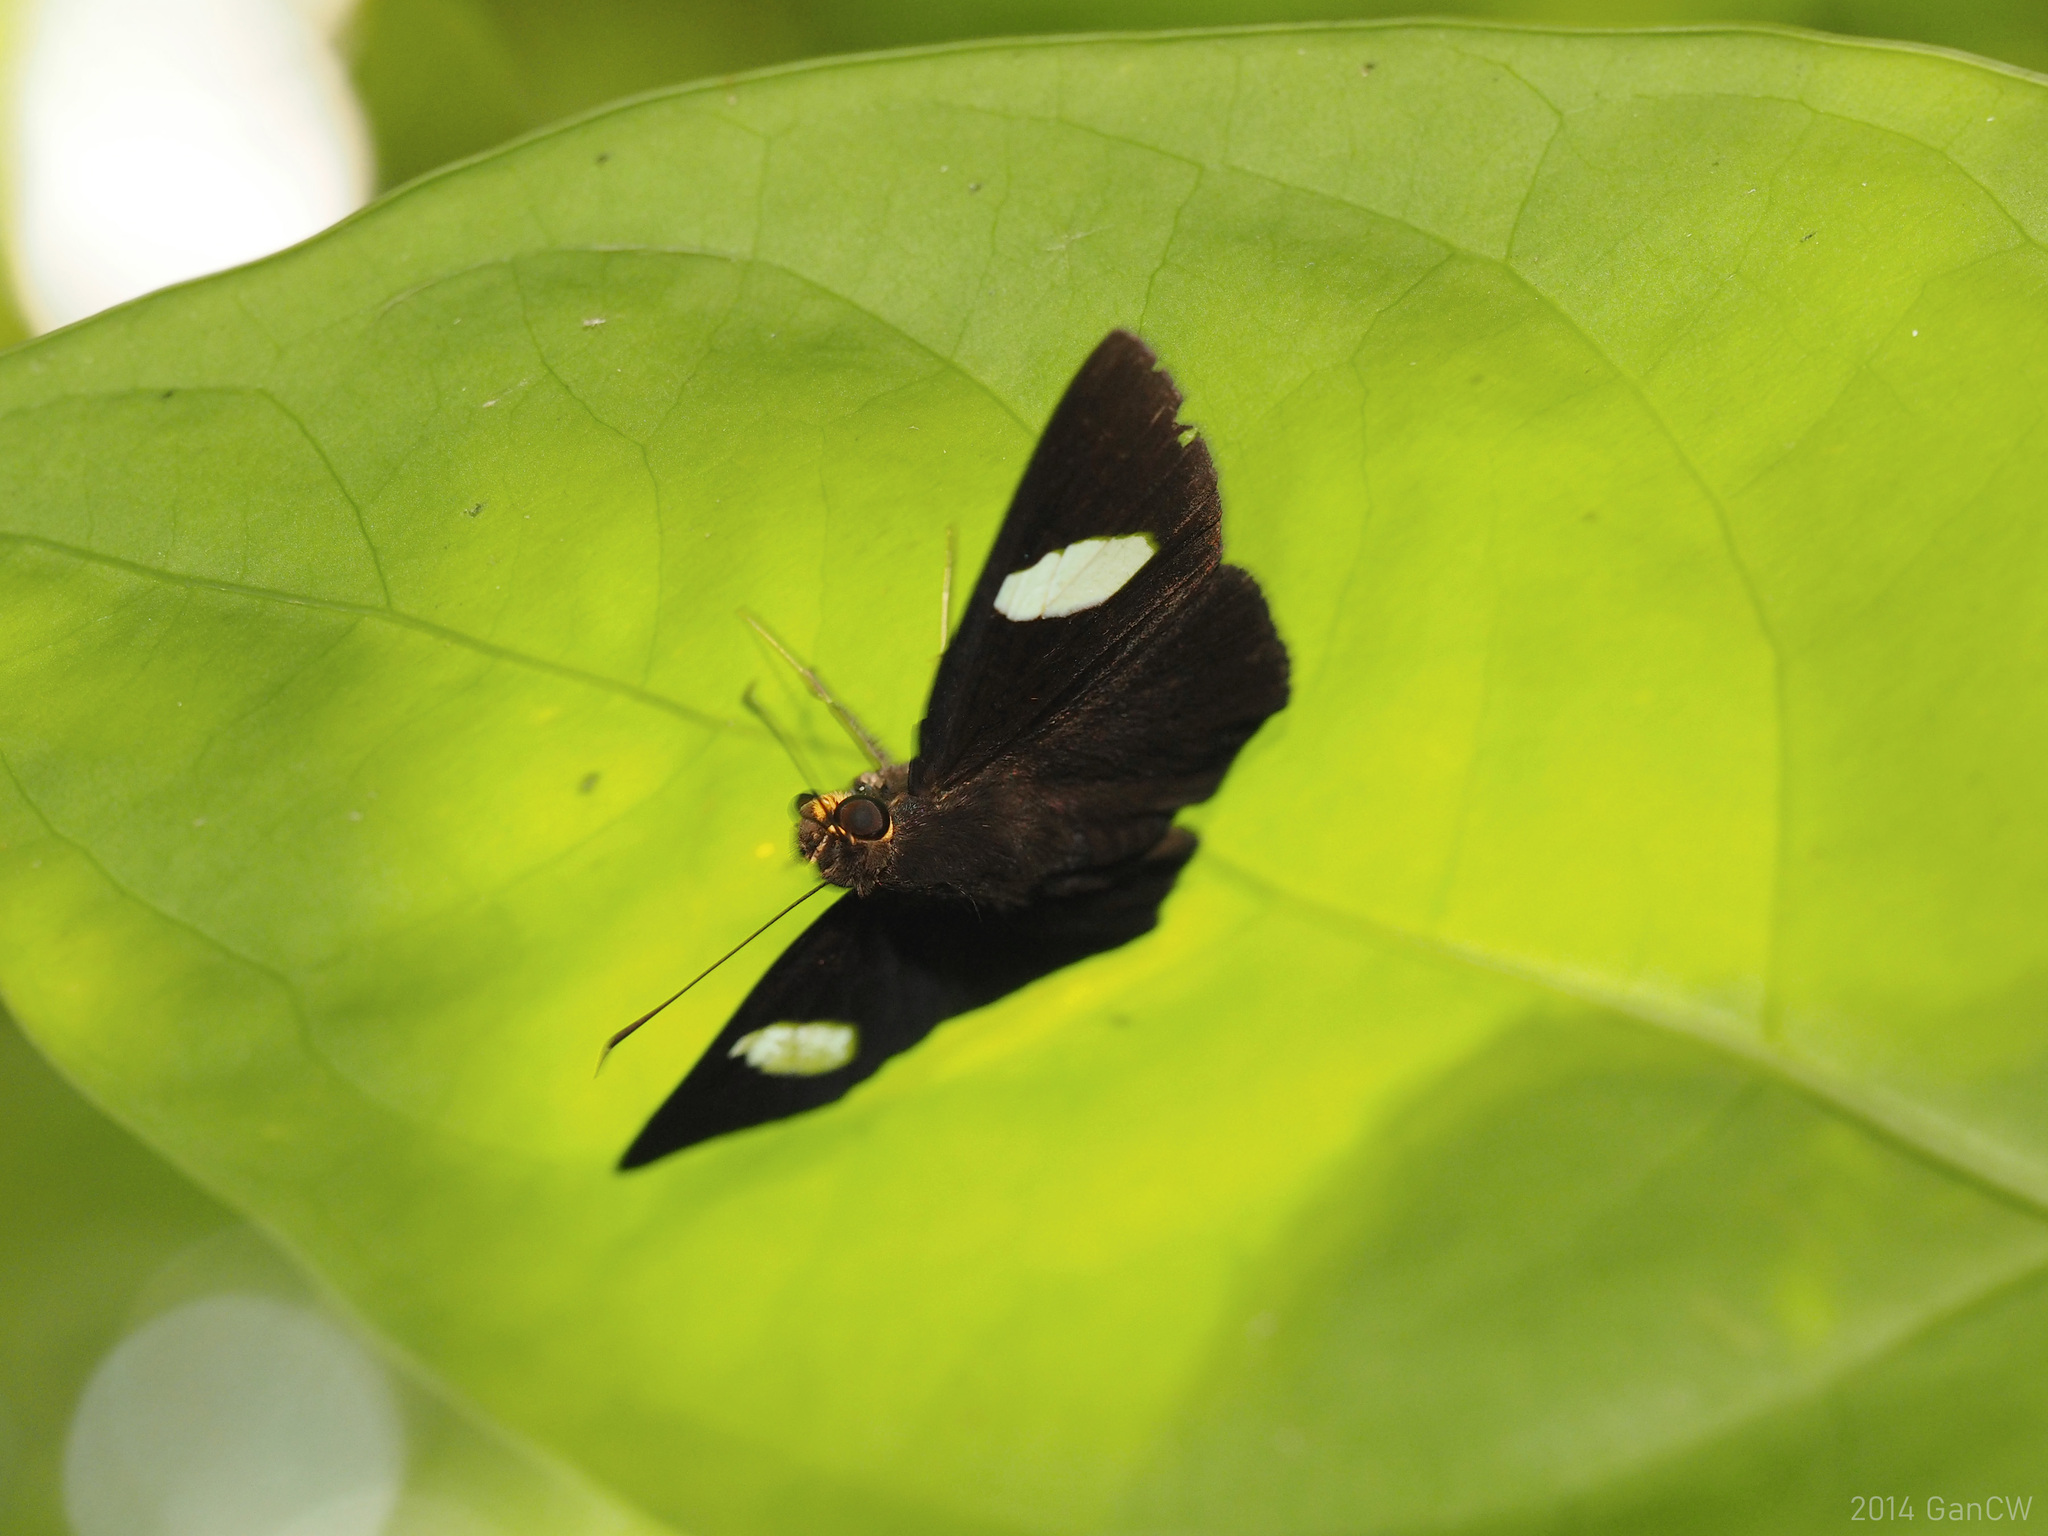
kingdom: Animalia
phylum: Arthropoda
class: Insecta
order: Lepidoptera
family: Hesperiidae
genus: Celaenorrhinus
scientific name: Celaenorrhinus ficulnea
